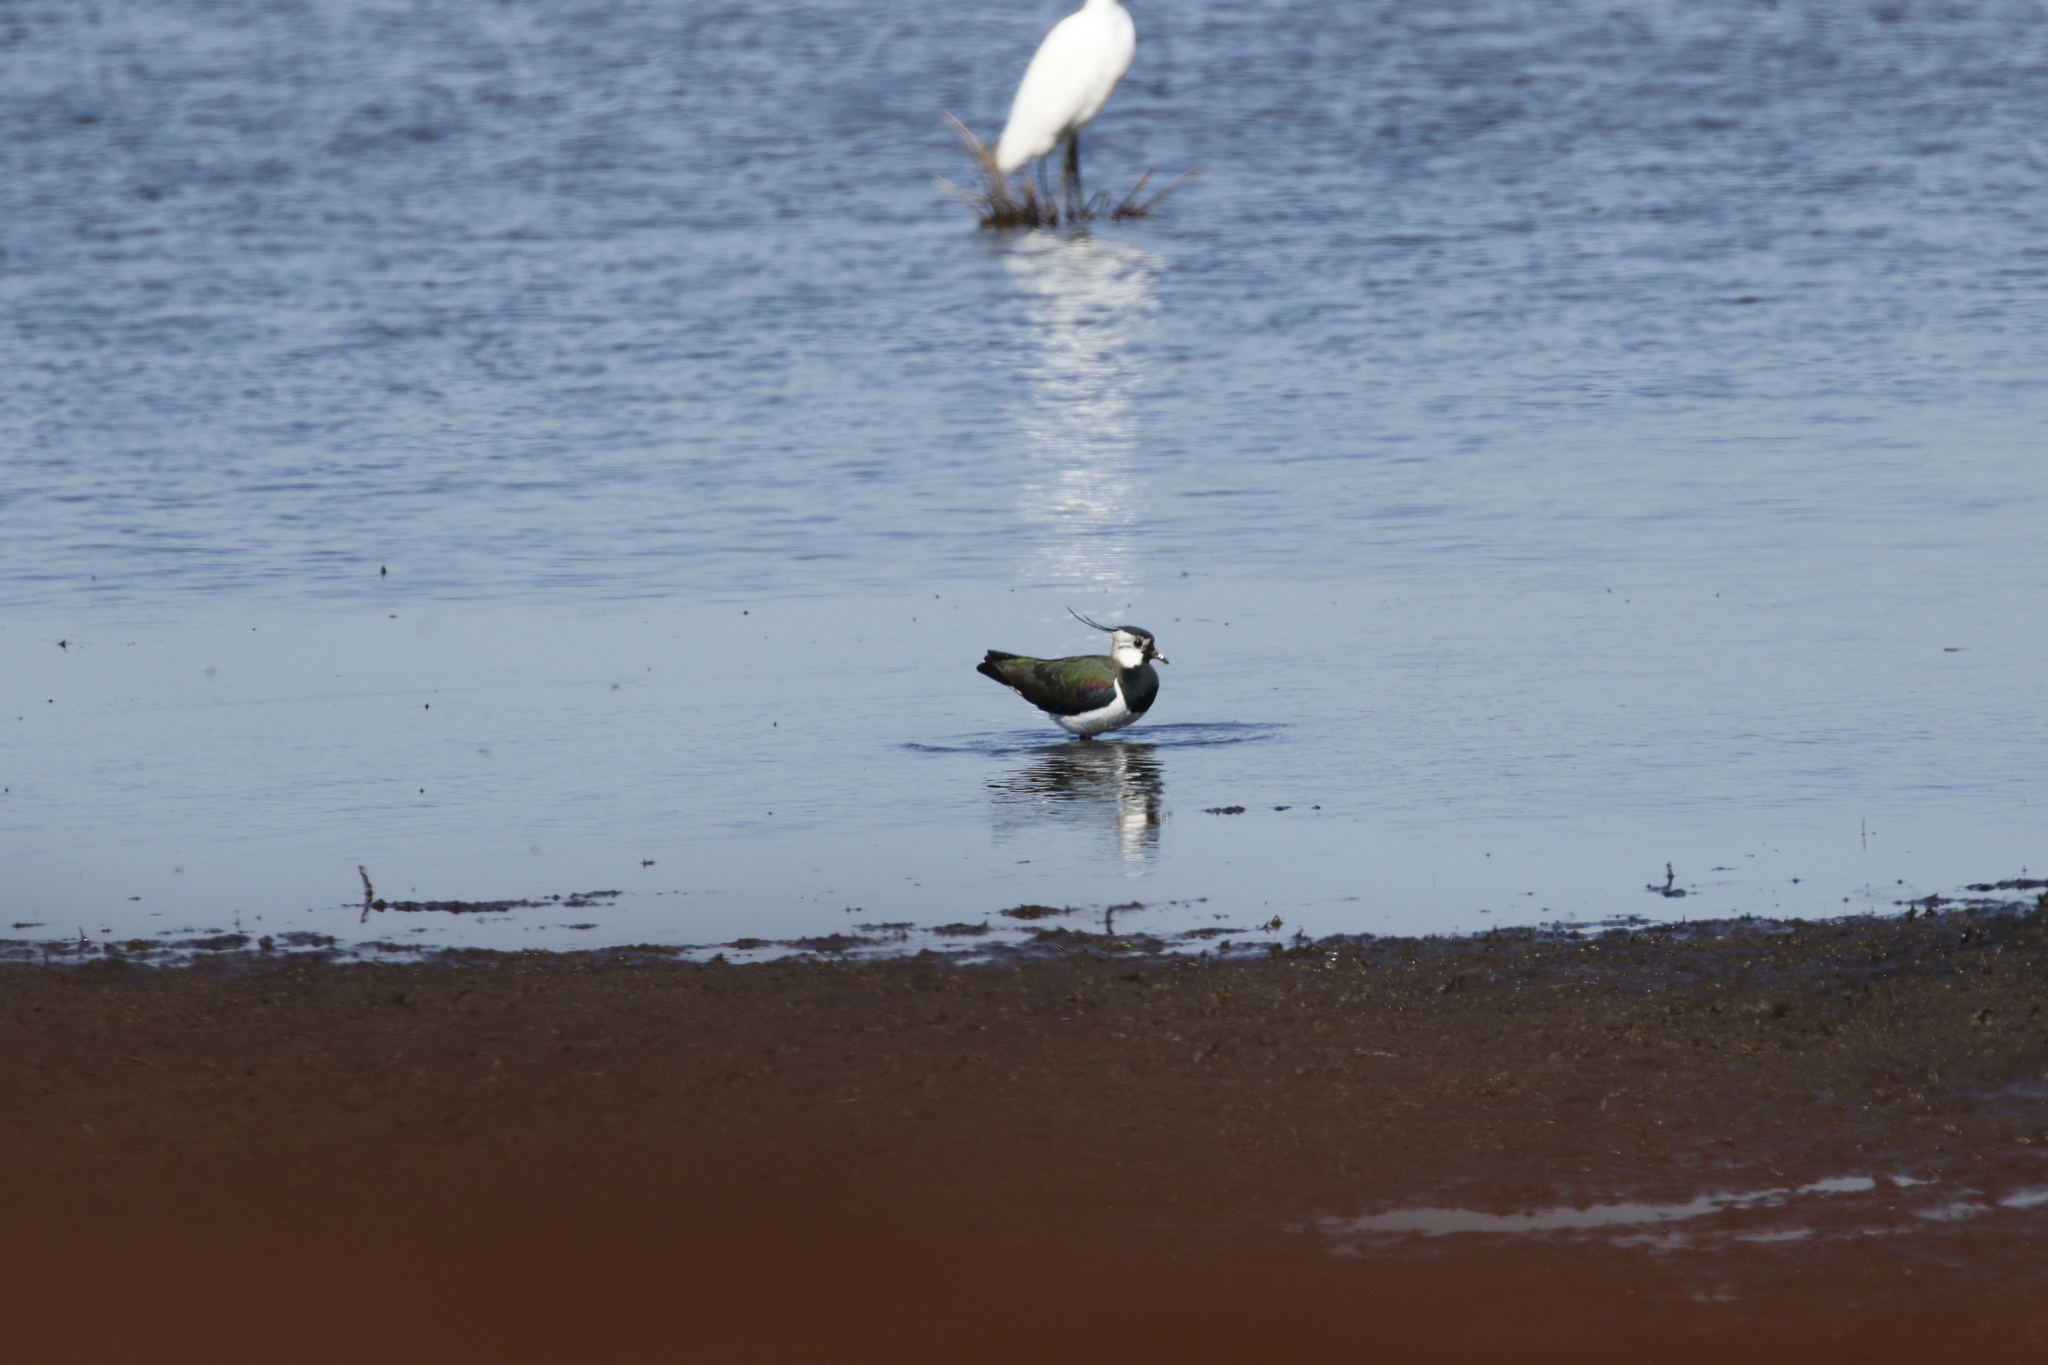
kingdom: Animalia
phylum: Chordata
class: Aves
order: Charadriiformes
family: Charadriidae
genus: Vanellus
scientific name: Vanellus vanellus
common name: Northern lapwing
